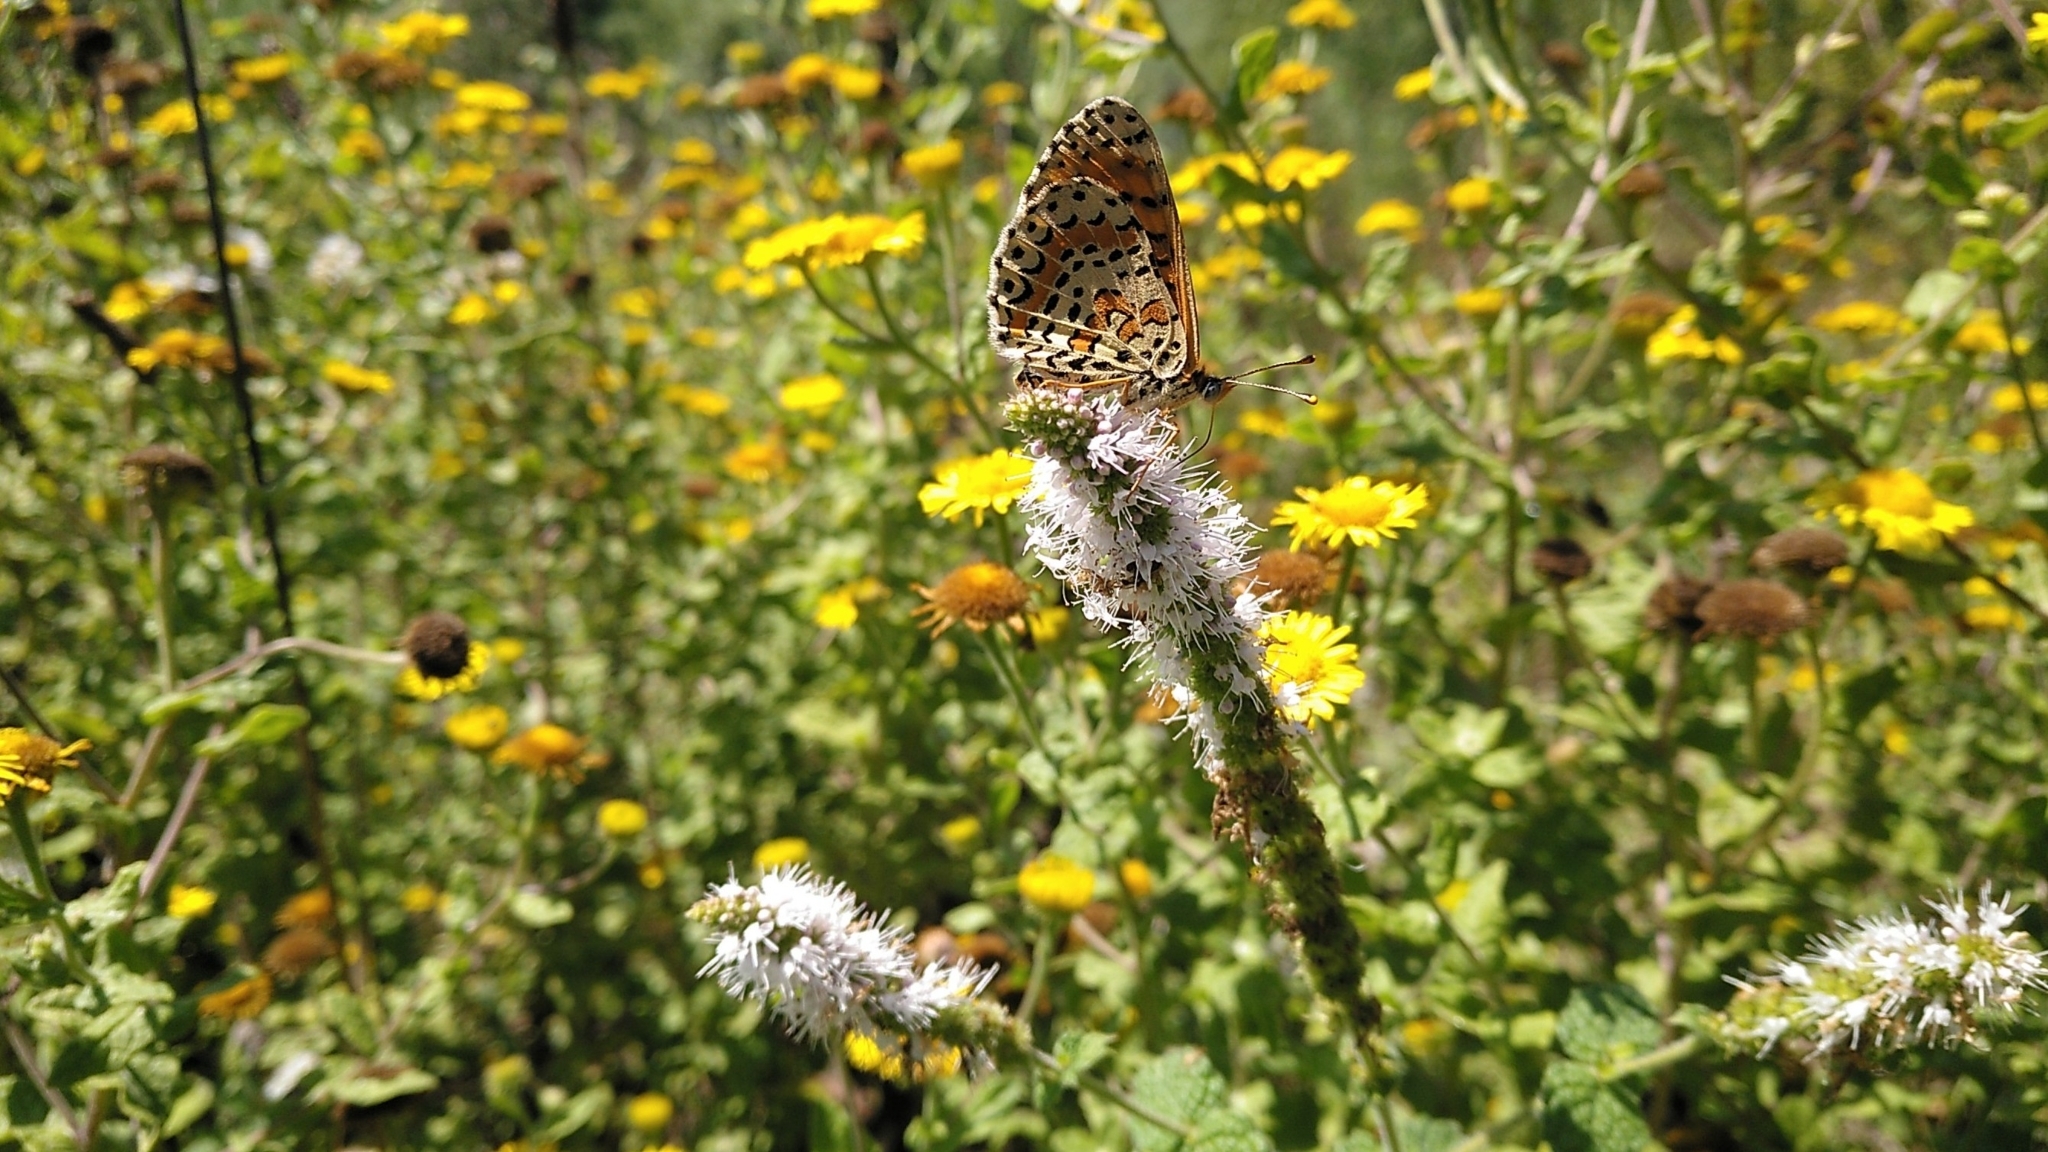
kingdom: Animalia
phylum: Arthropoda
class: Insecta
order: Lepidoptera
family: Nymphalidae
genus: Melitaea
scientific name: Melitaea didyma
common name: Spotted fritillary
